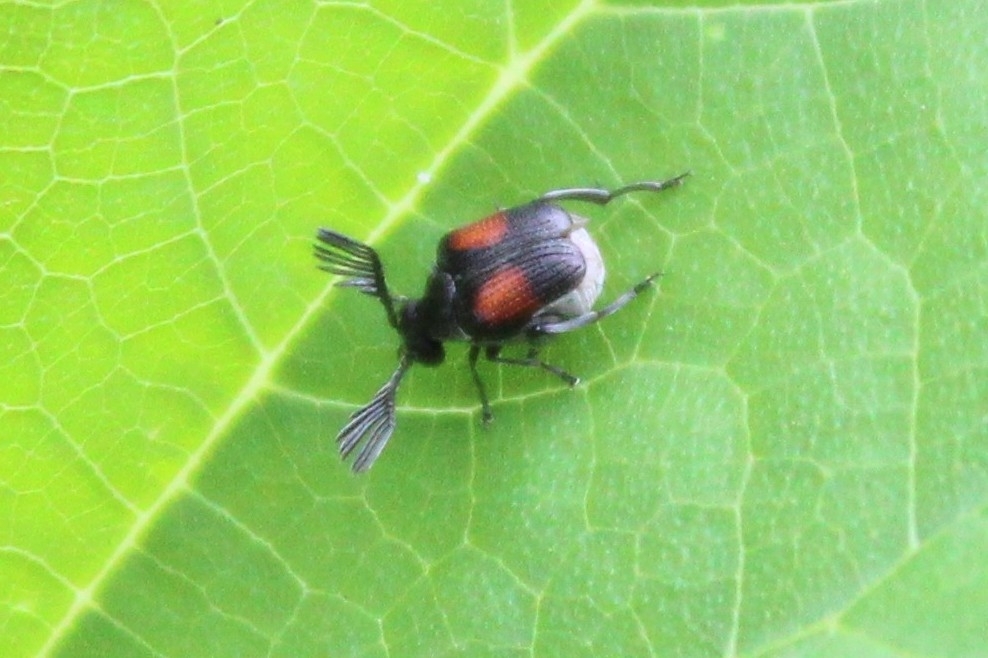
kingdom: Animalia
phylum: Arthropoda
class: Insecta
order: Coleoptera
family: Chrysomelidae
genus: Megacerus
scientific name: Megacerus discoidus
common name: Red megacerus
